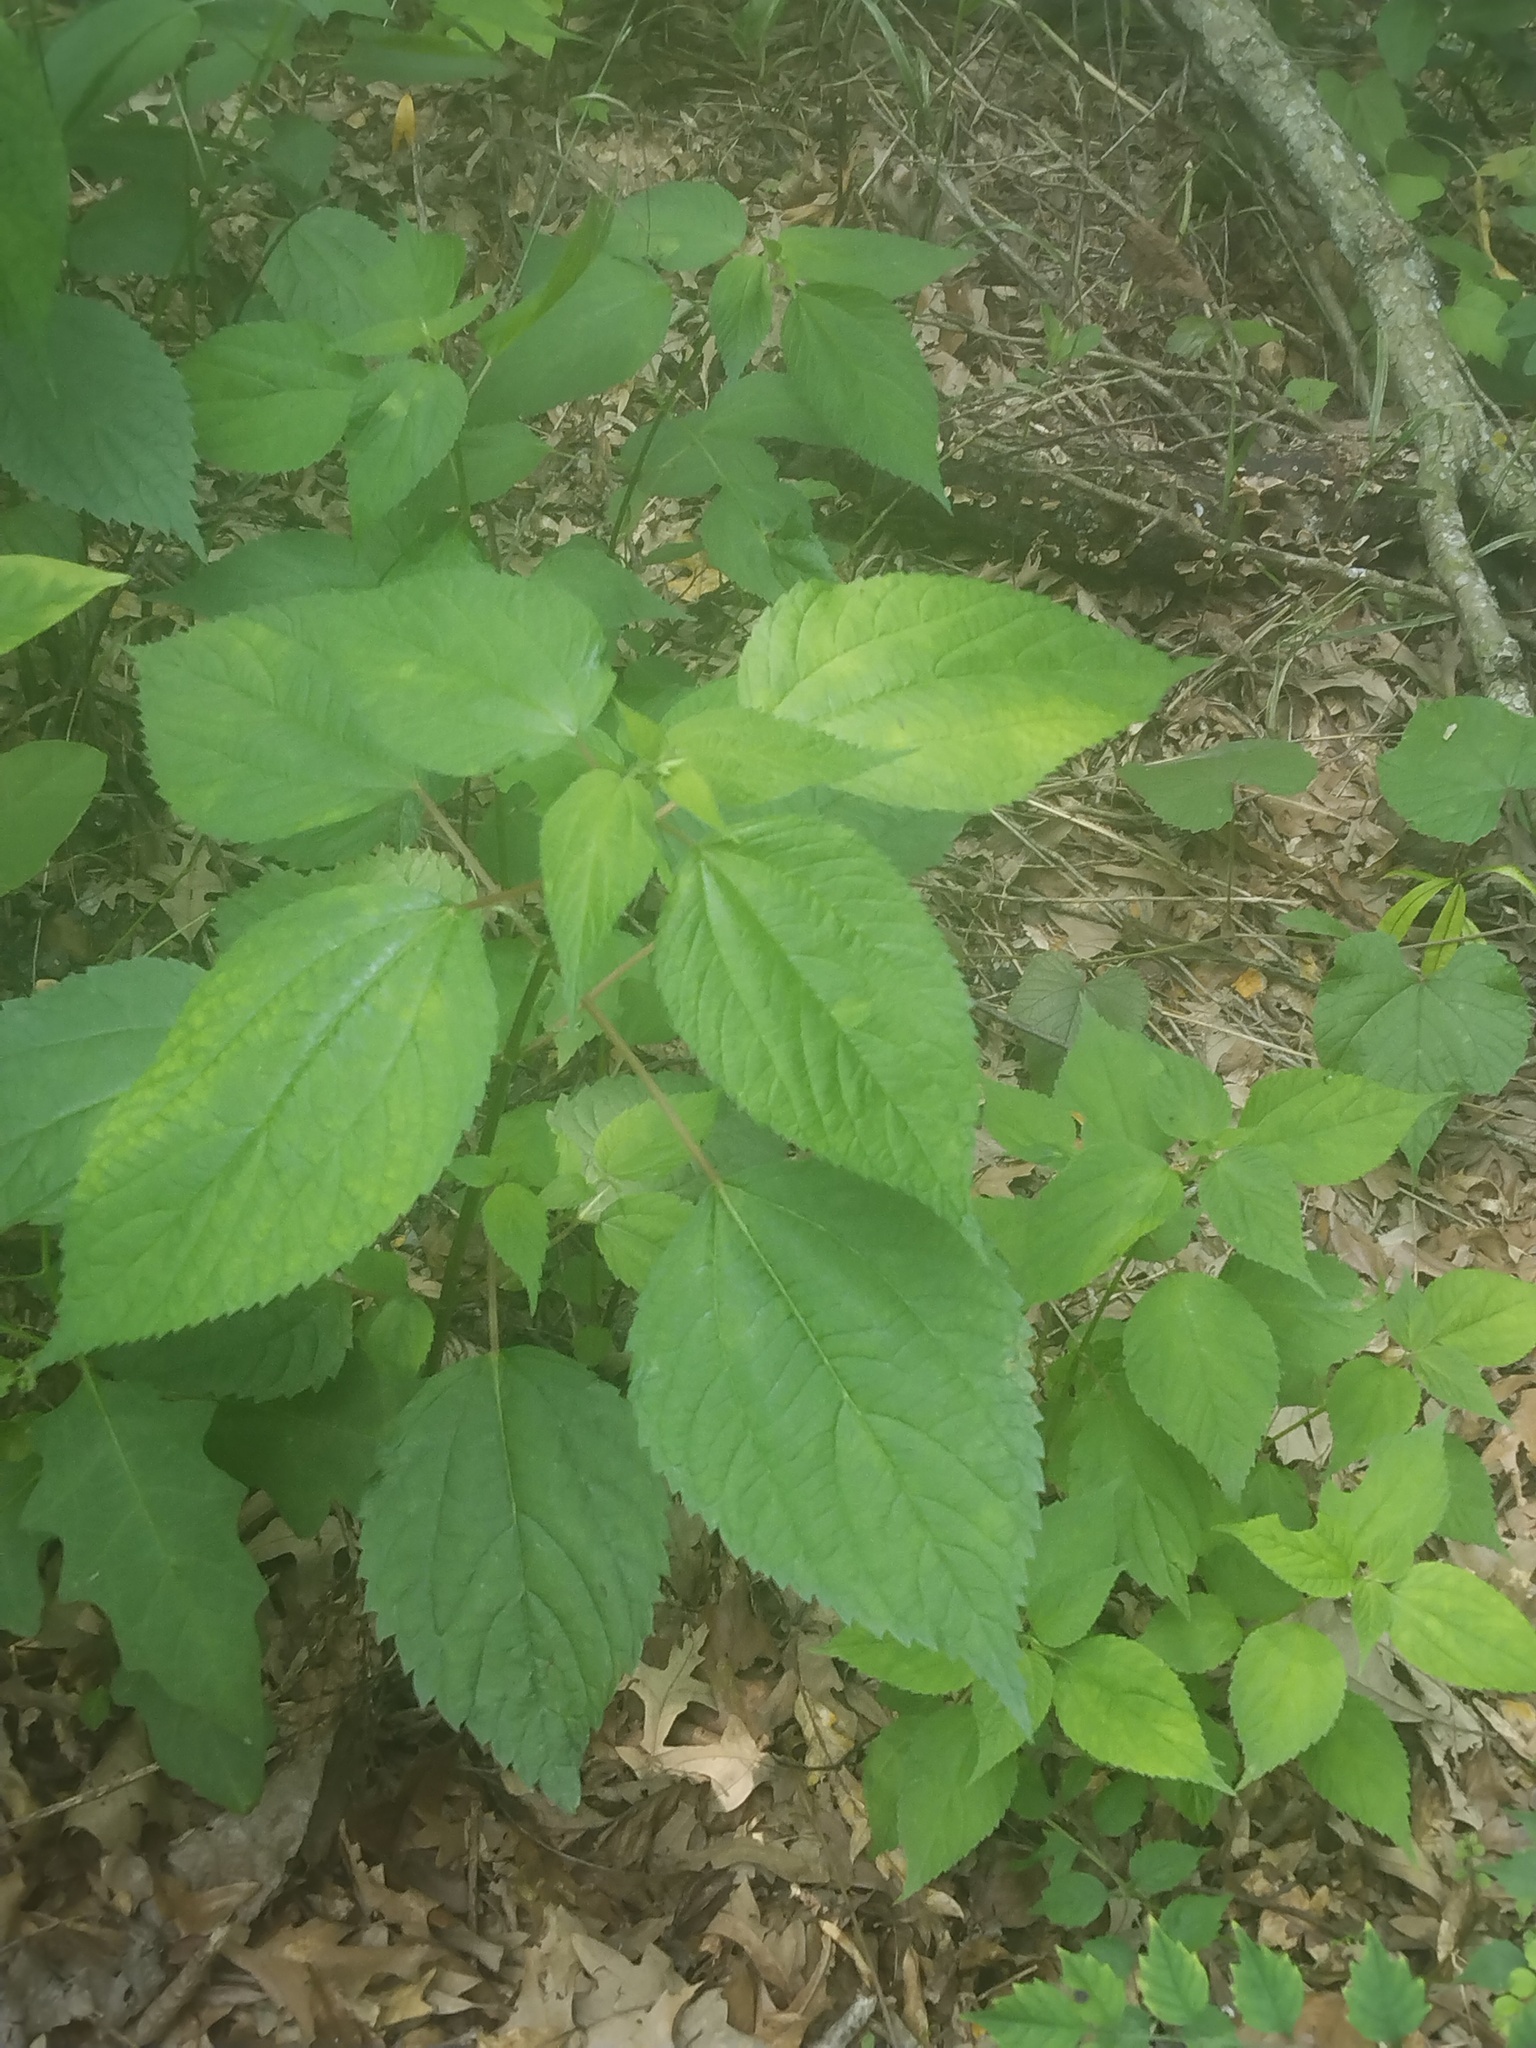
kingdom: Plantae
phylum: Tracheophyta
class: Magnoliopsida
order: Rosales
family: Urticaceae
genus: Boehmeria
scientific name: Boehmeria cylindrica
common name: Bog-hemp
